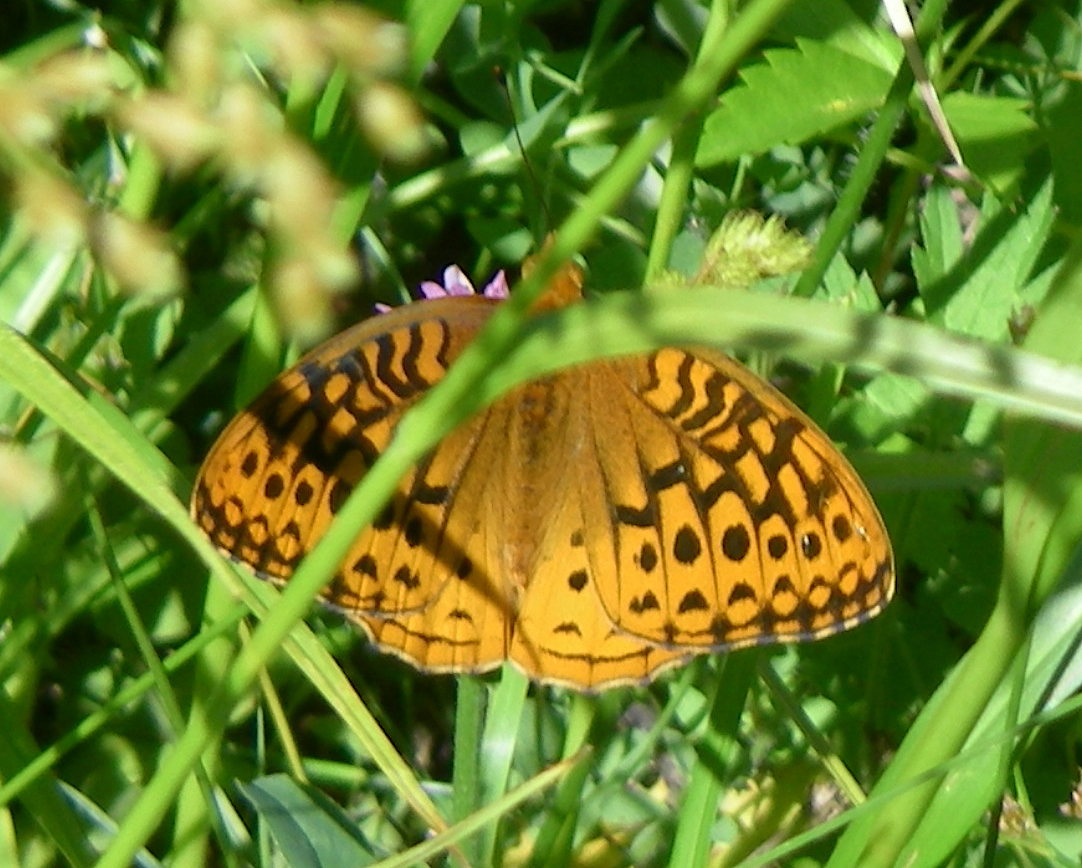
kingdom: Animalia
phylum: Arthropoda
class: Insecta
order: Lepidoptera
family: Nymphalidae
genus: Speyeria
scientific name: Speyeria cybele
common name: Great spangled fritillary
